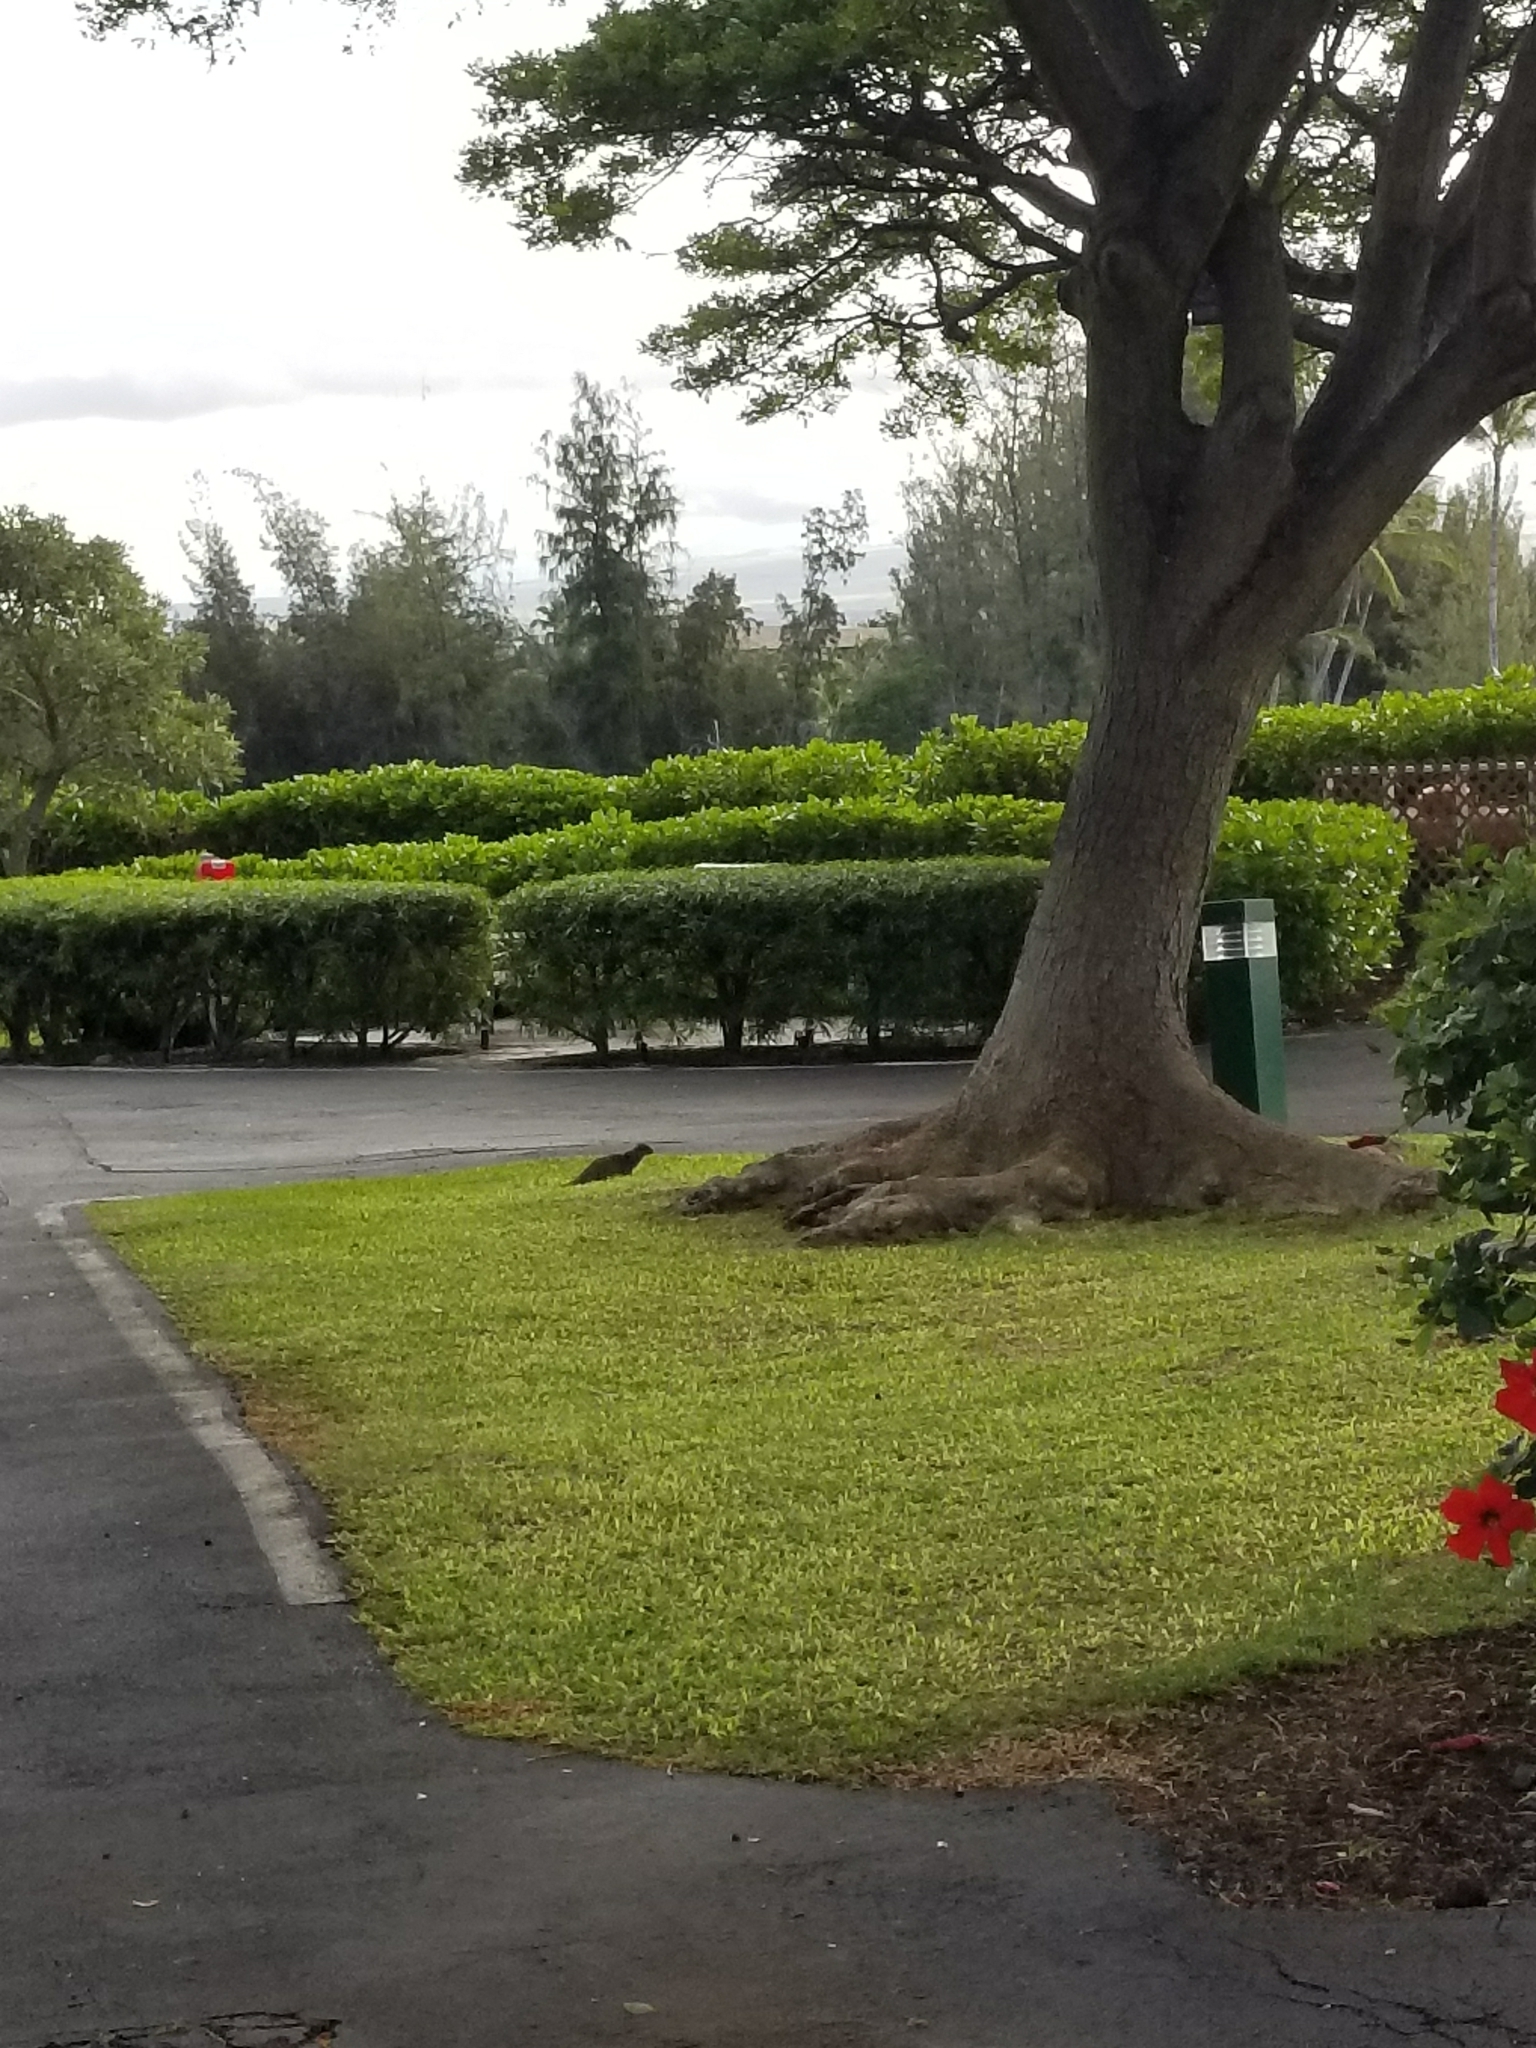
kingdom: Animalia
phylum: Chordata
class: Mammalia
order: Carnivora
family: Herpestidae
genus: Herpestes
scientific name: Herpestes javanicus
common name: Small asian mongoose
